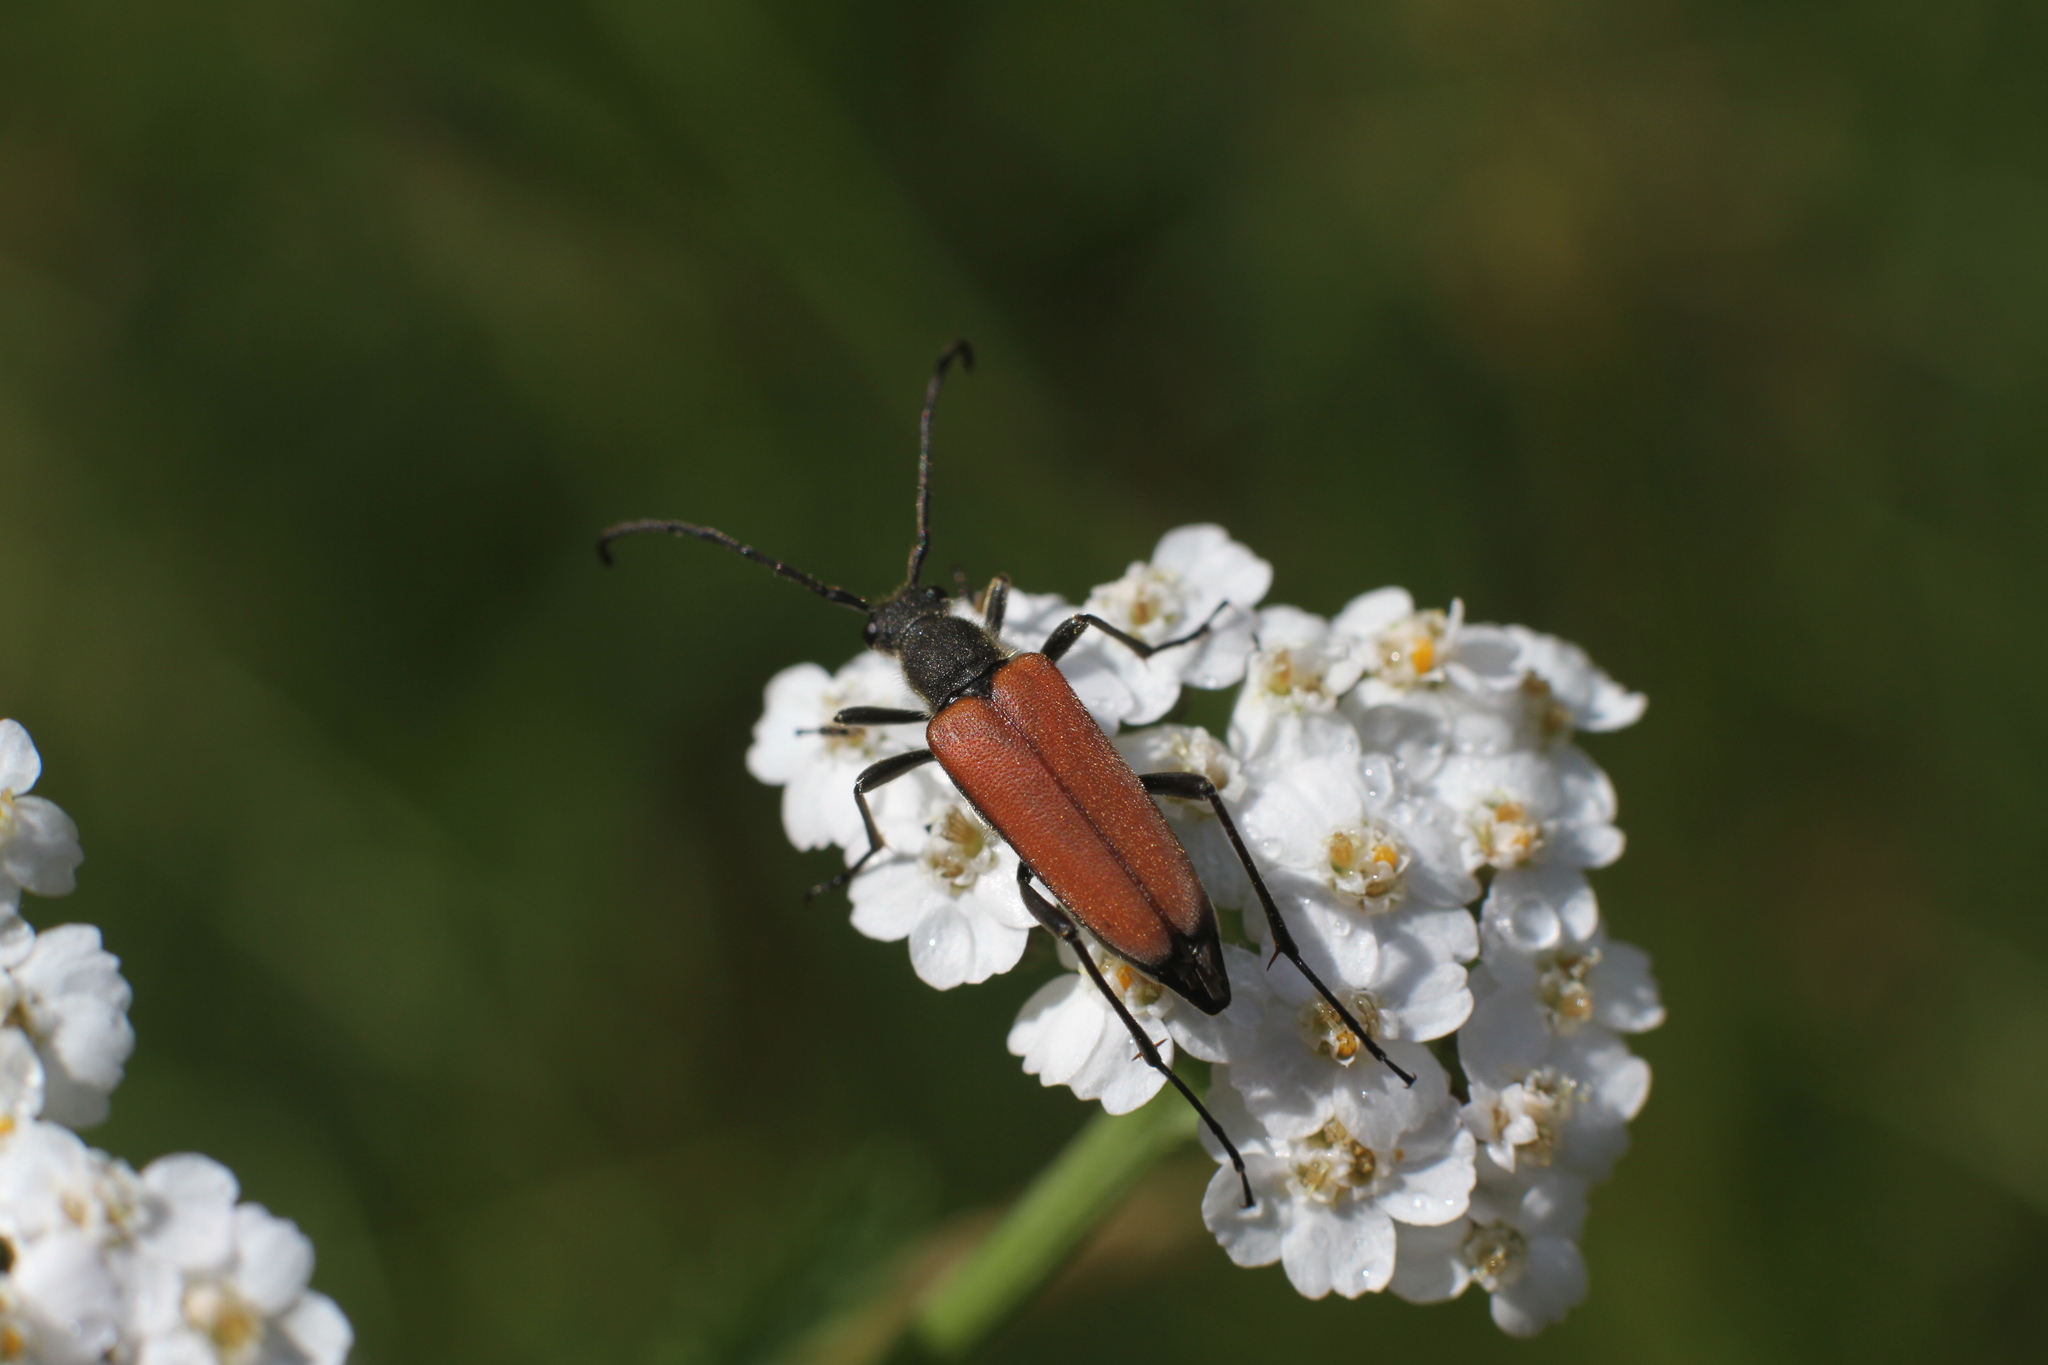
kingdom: Animalia
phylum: Arthropoda
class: Insecta
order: Coleoptera
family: Cerambycidae
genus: Anastrangalia
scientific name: Anastrangalia reyi
